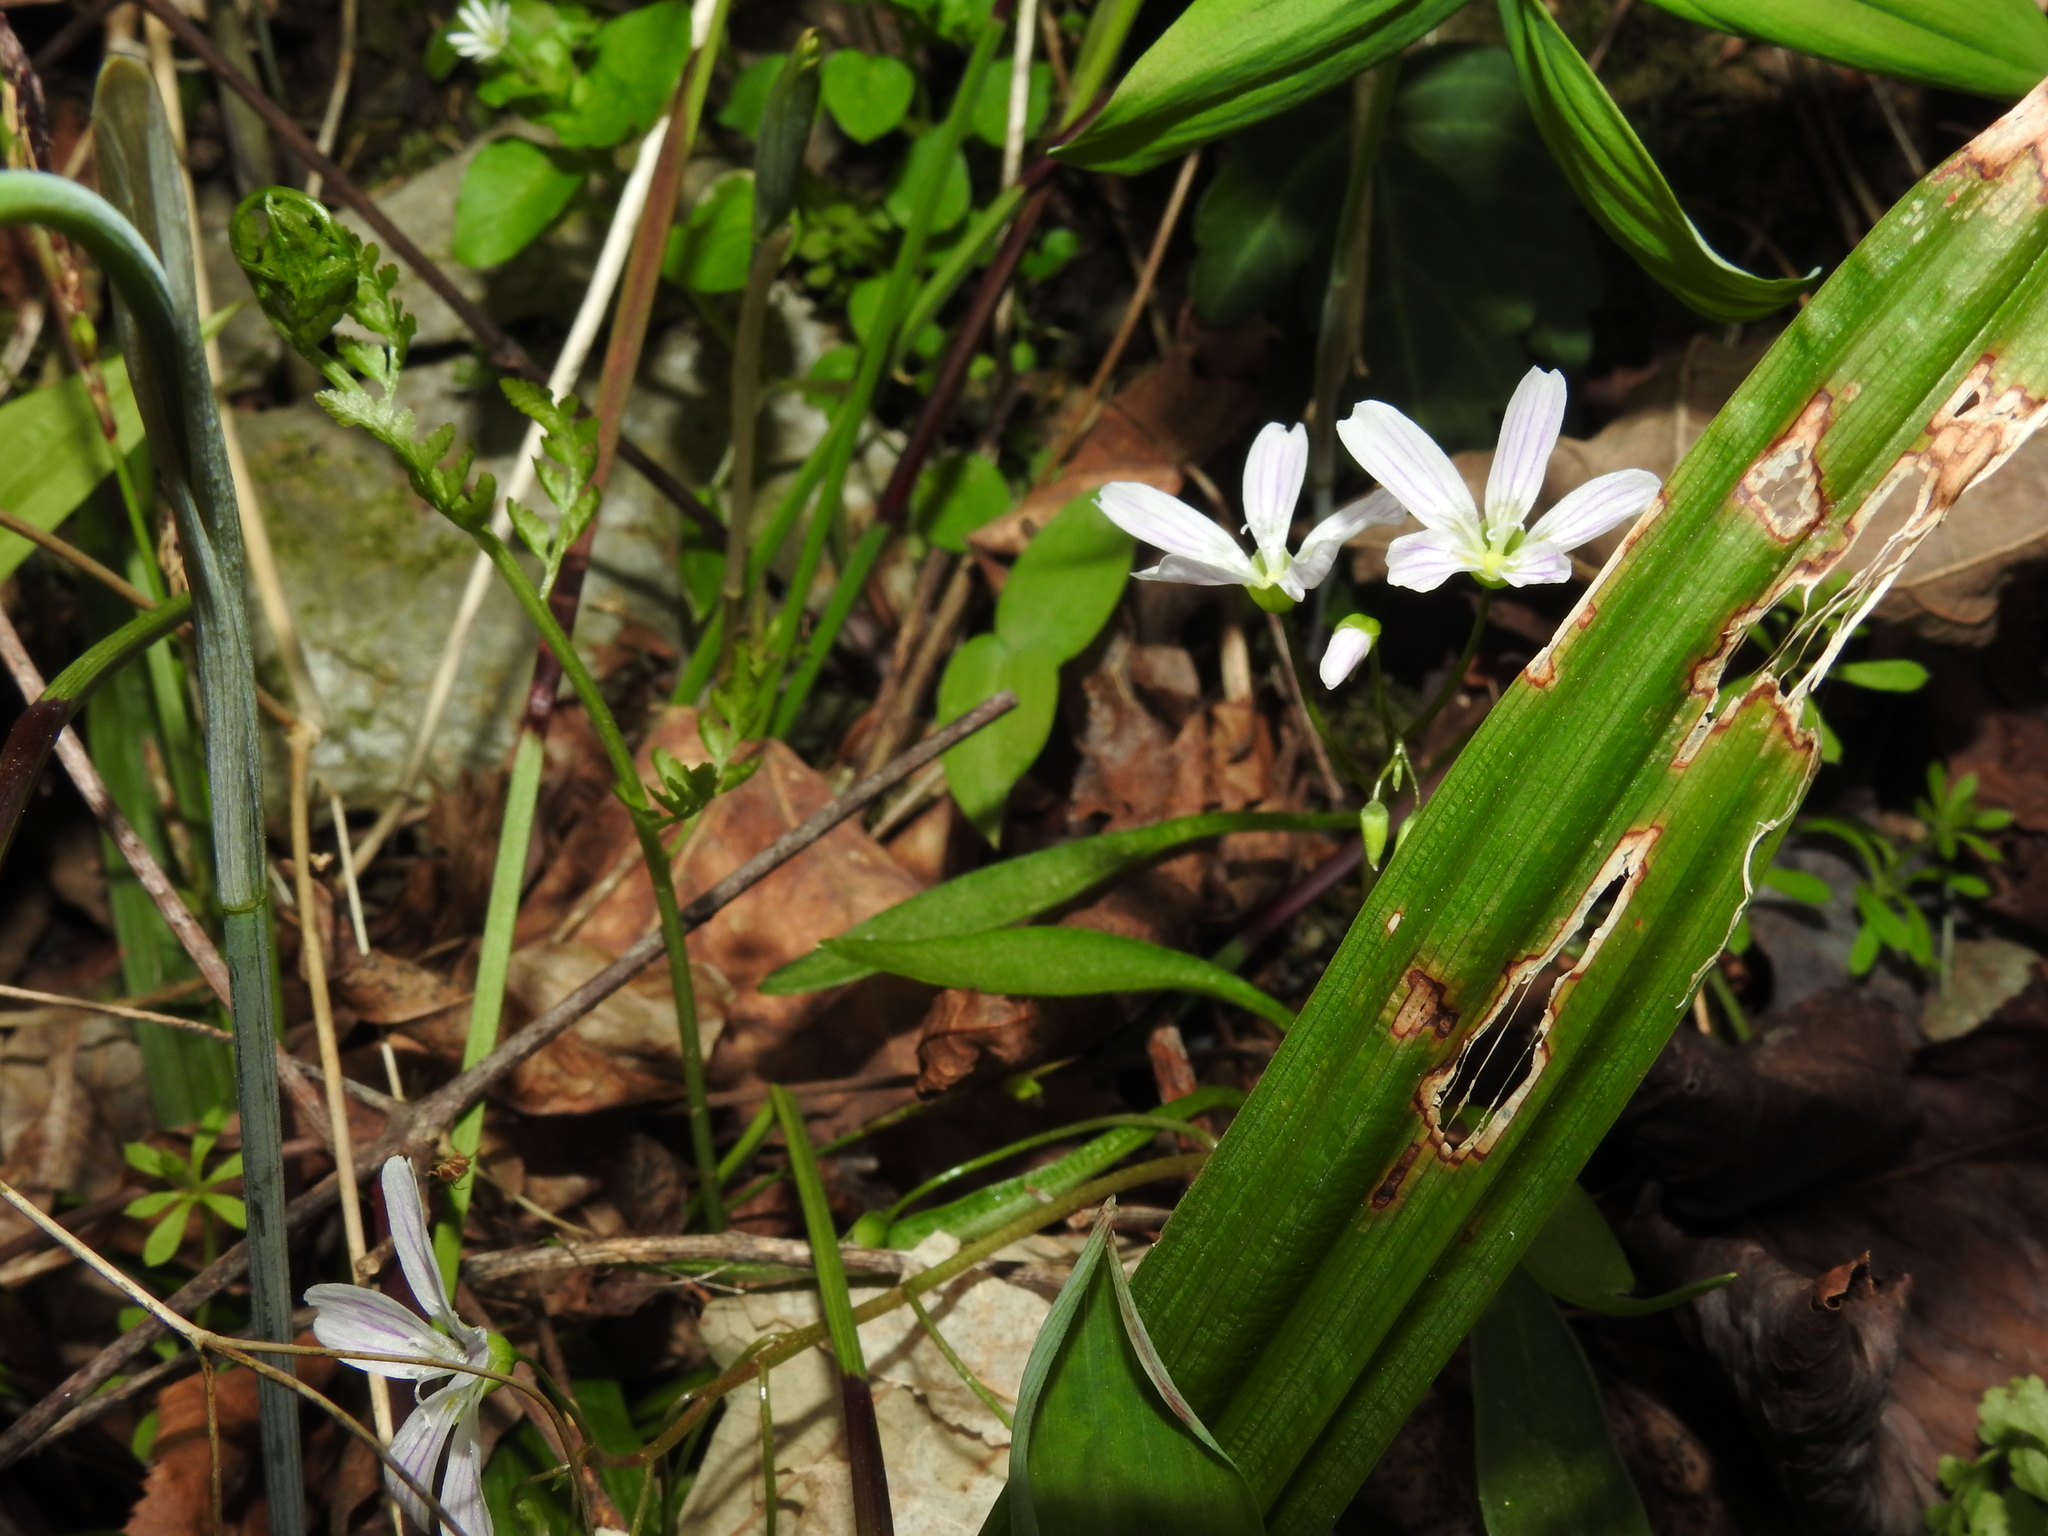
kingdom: Plantae
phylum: Tracheophyta
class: Magnoliopsida
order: Caryophyllales
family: Montiaceae
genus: Claytonia
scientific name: Claytonia virginica
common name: Virginia springbeauty
